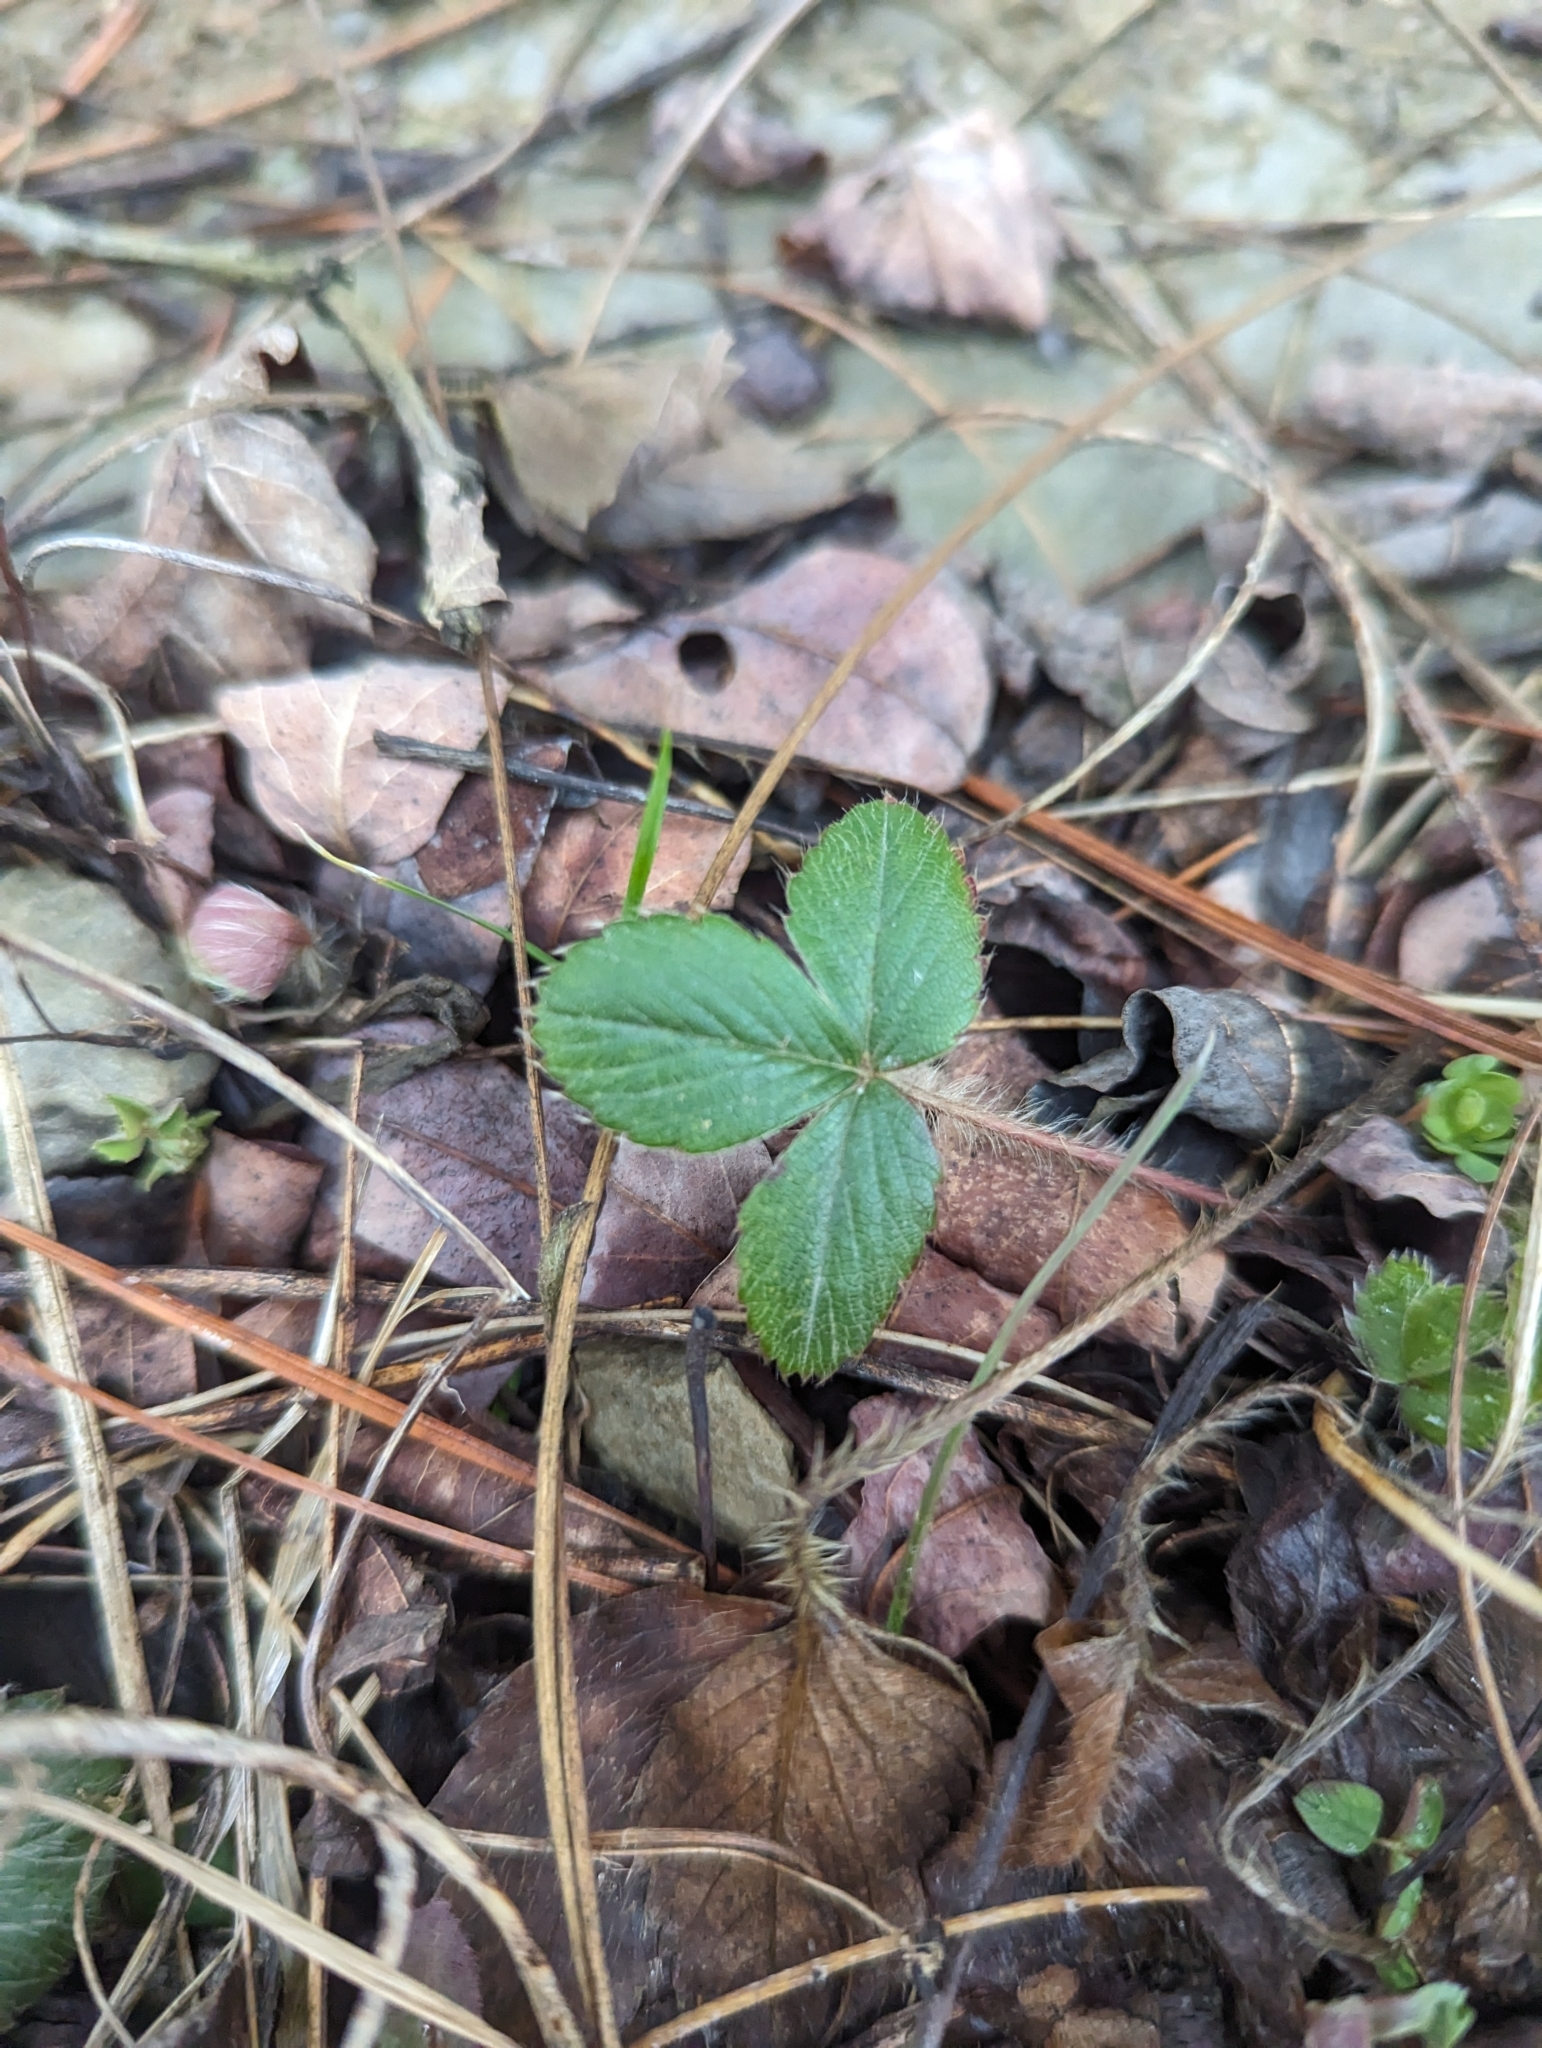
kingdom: Plantae
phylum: Tracheophyta
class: Magnoliopsida
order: Rosales
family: Rosaceae
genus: Fragaria
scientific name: Fragaria virginiana
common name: Thickleaved wild strawberry
